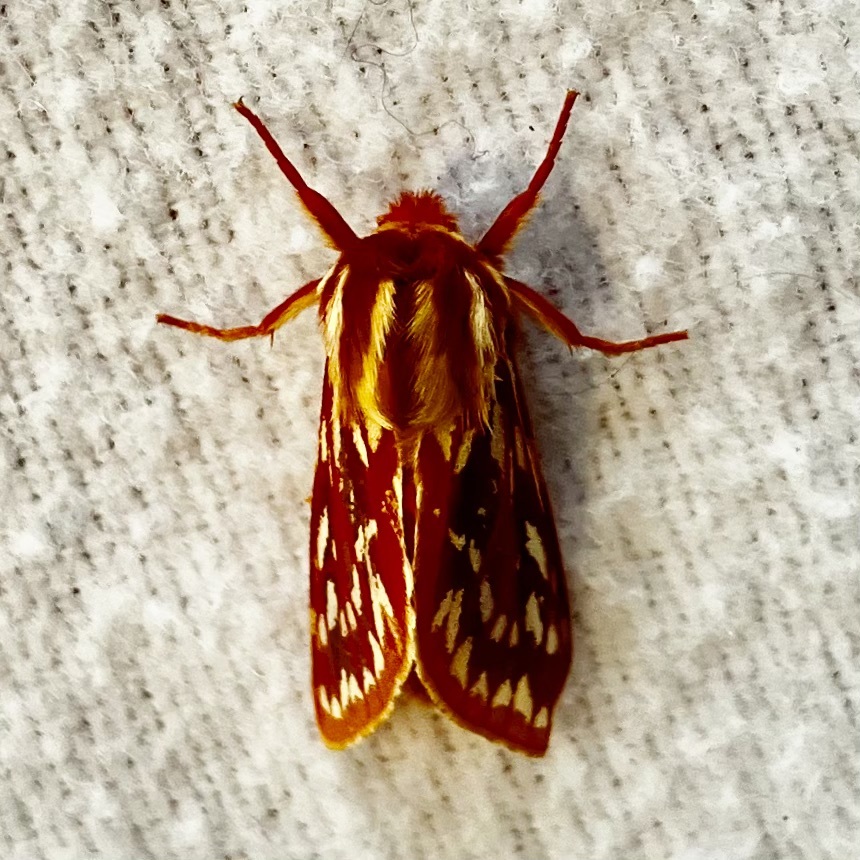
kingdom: Animalia
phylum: Arthropoda
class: Insecta
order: Lepidoptera
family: Erebidae
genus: Lophocampa
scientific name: Lophocampa roseata
